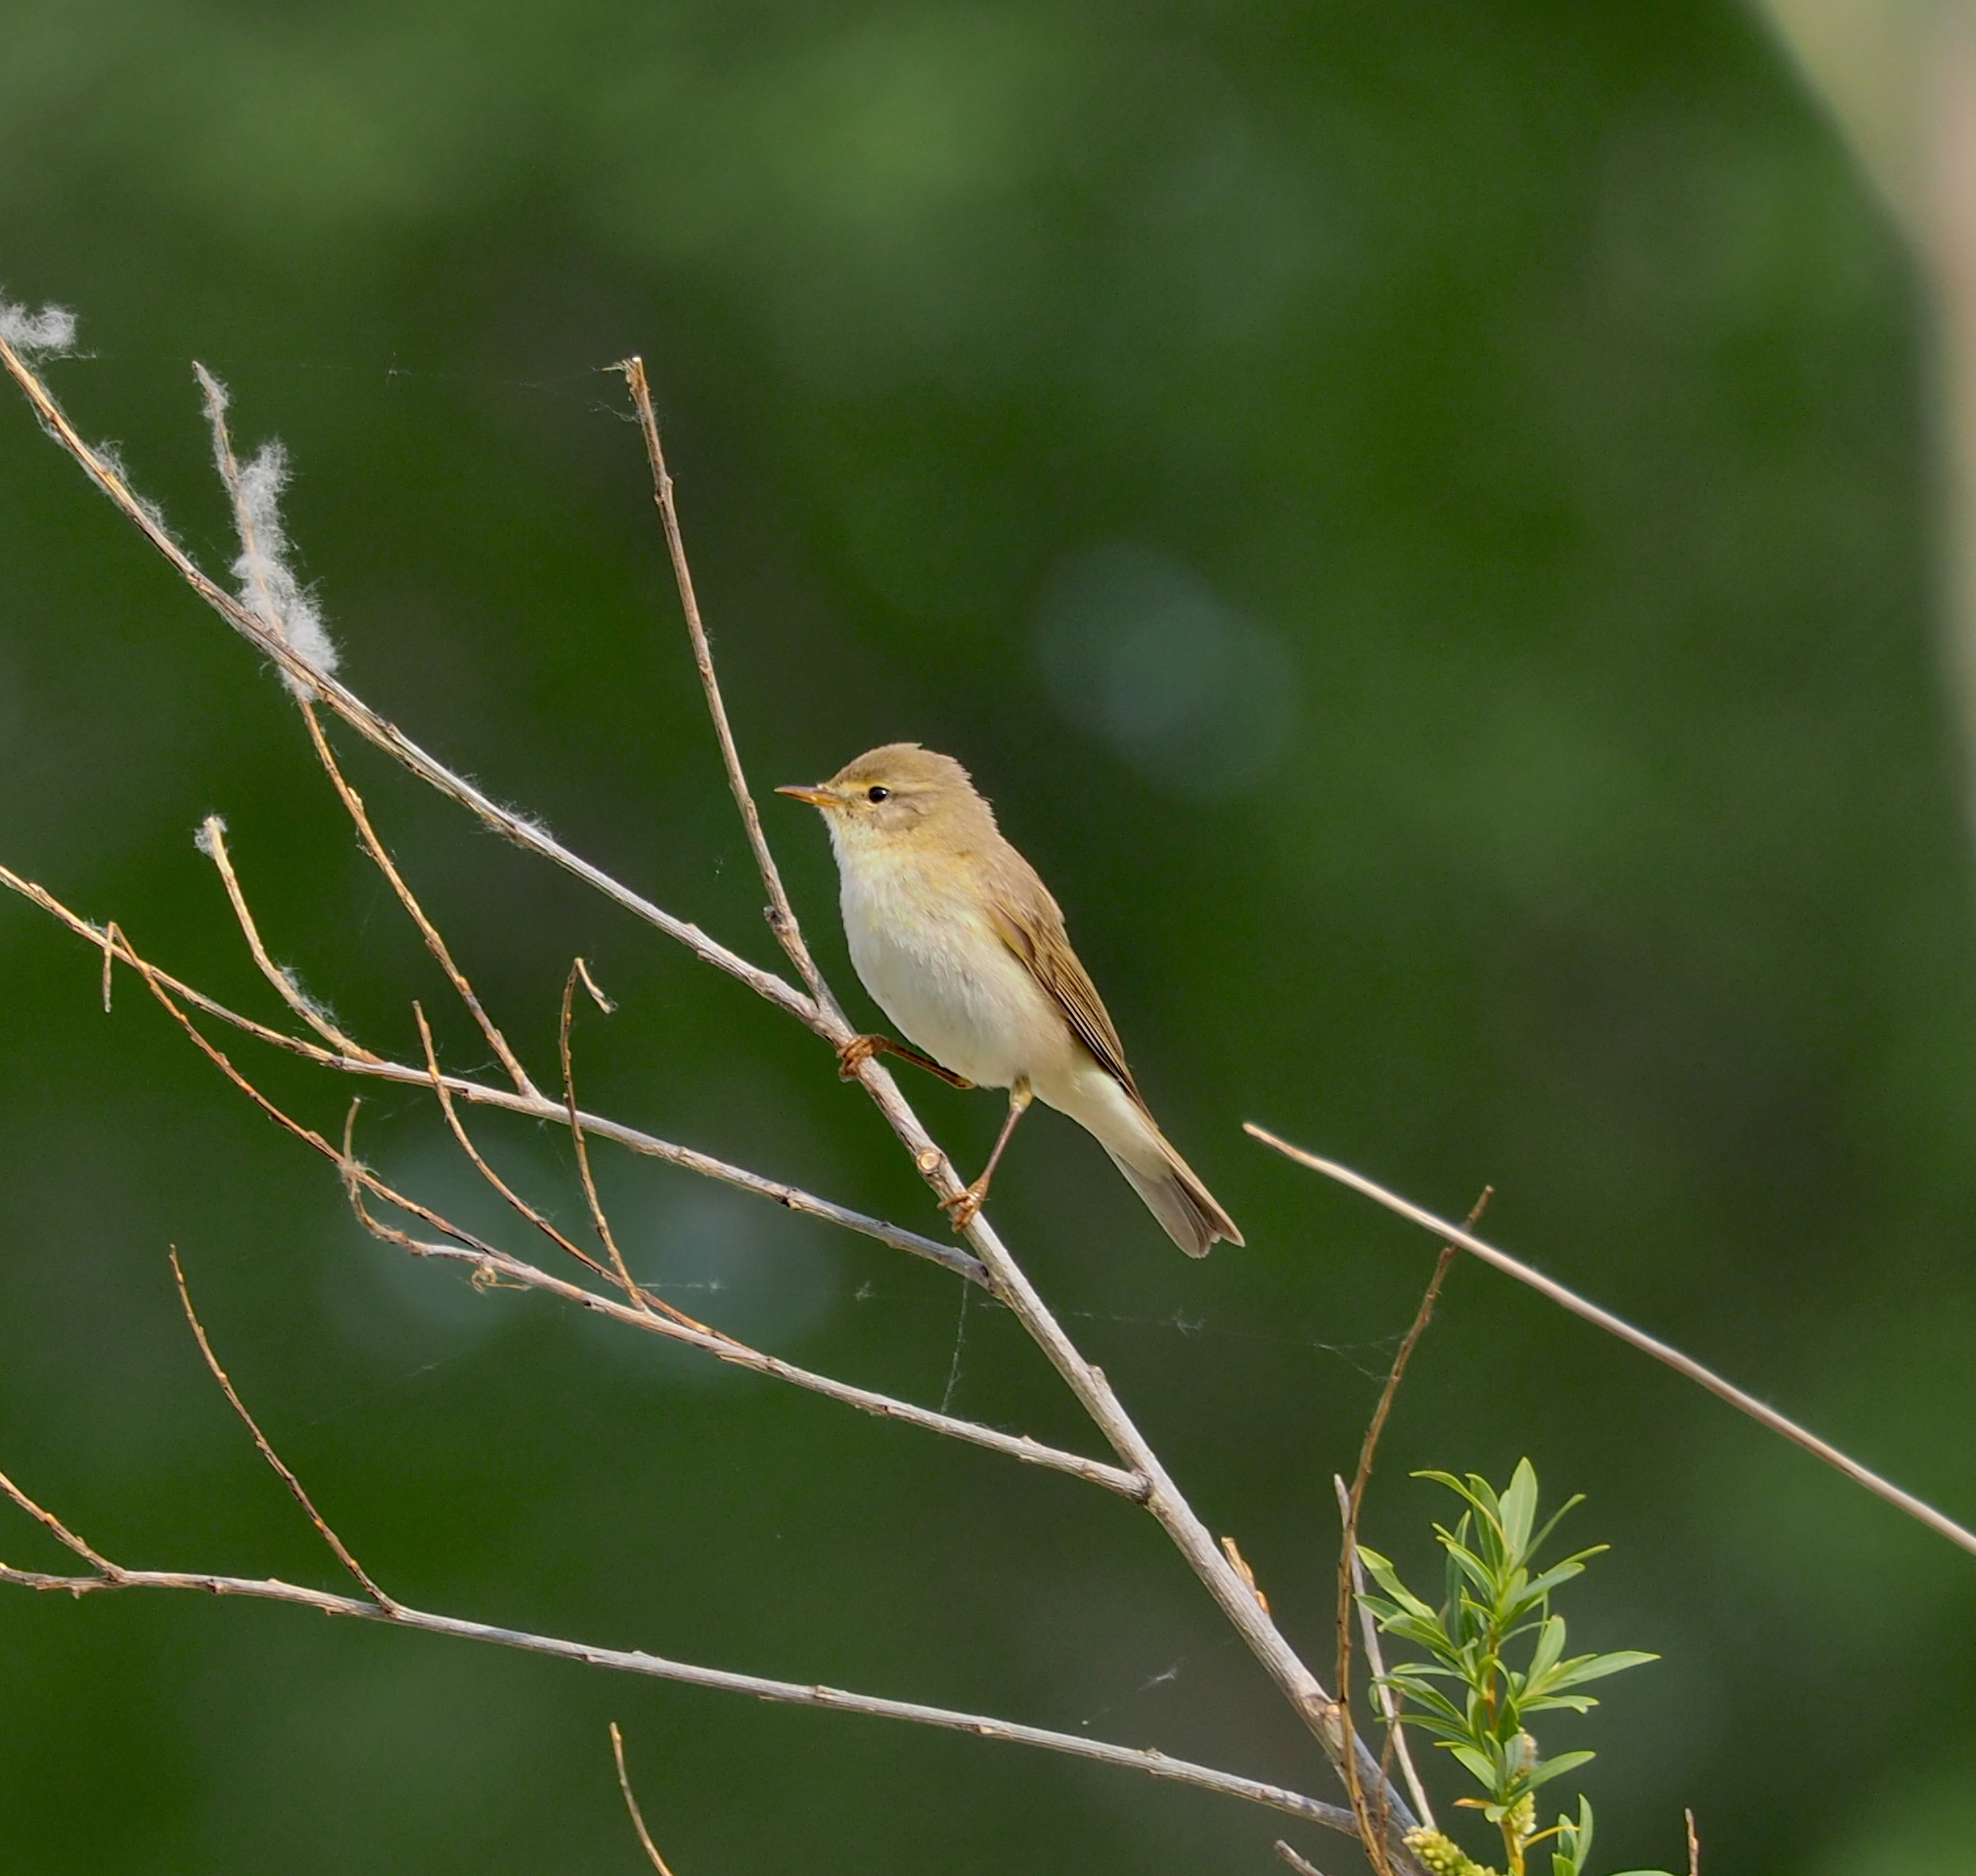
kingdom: Animalia
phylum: Chordata
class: Aves
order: Passeriformes
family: Phylloscopidae
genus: Phylloscopus
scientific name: Phylloscopus trochilus
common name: Willow warbler
